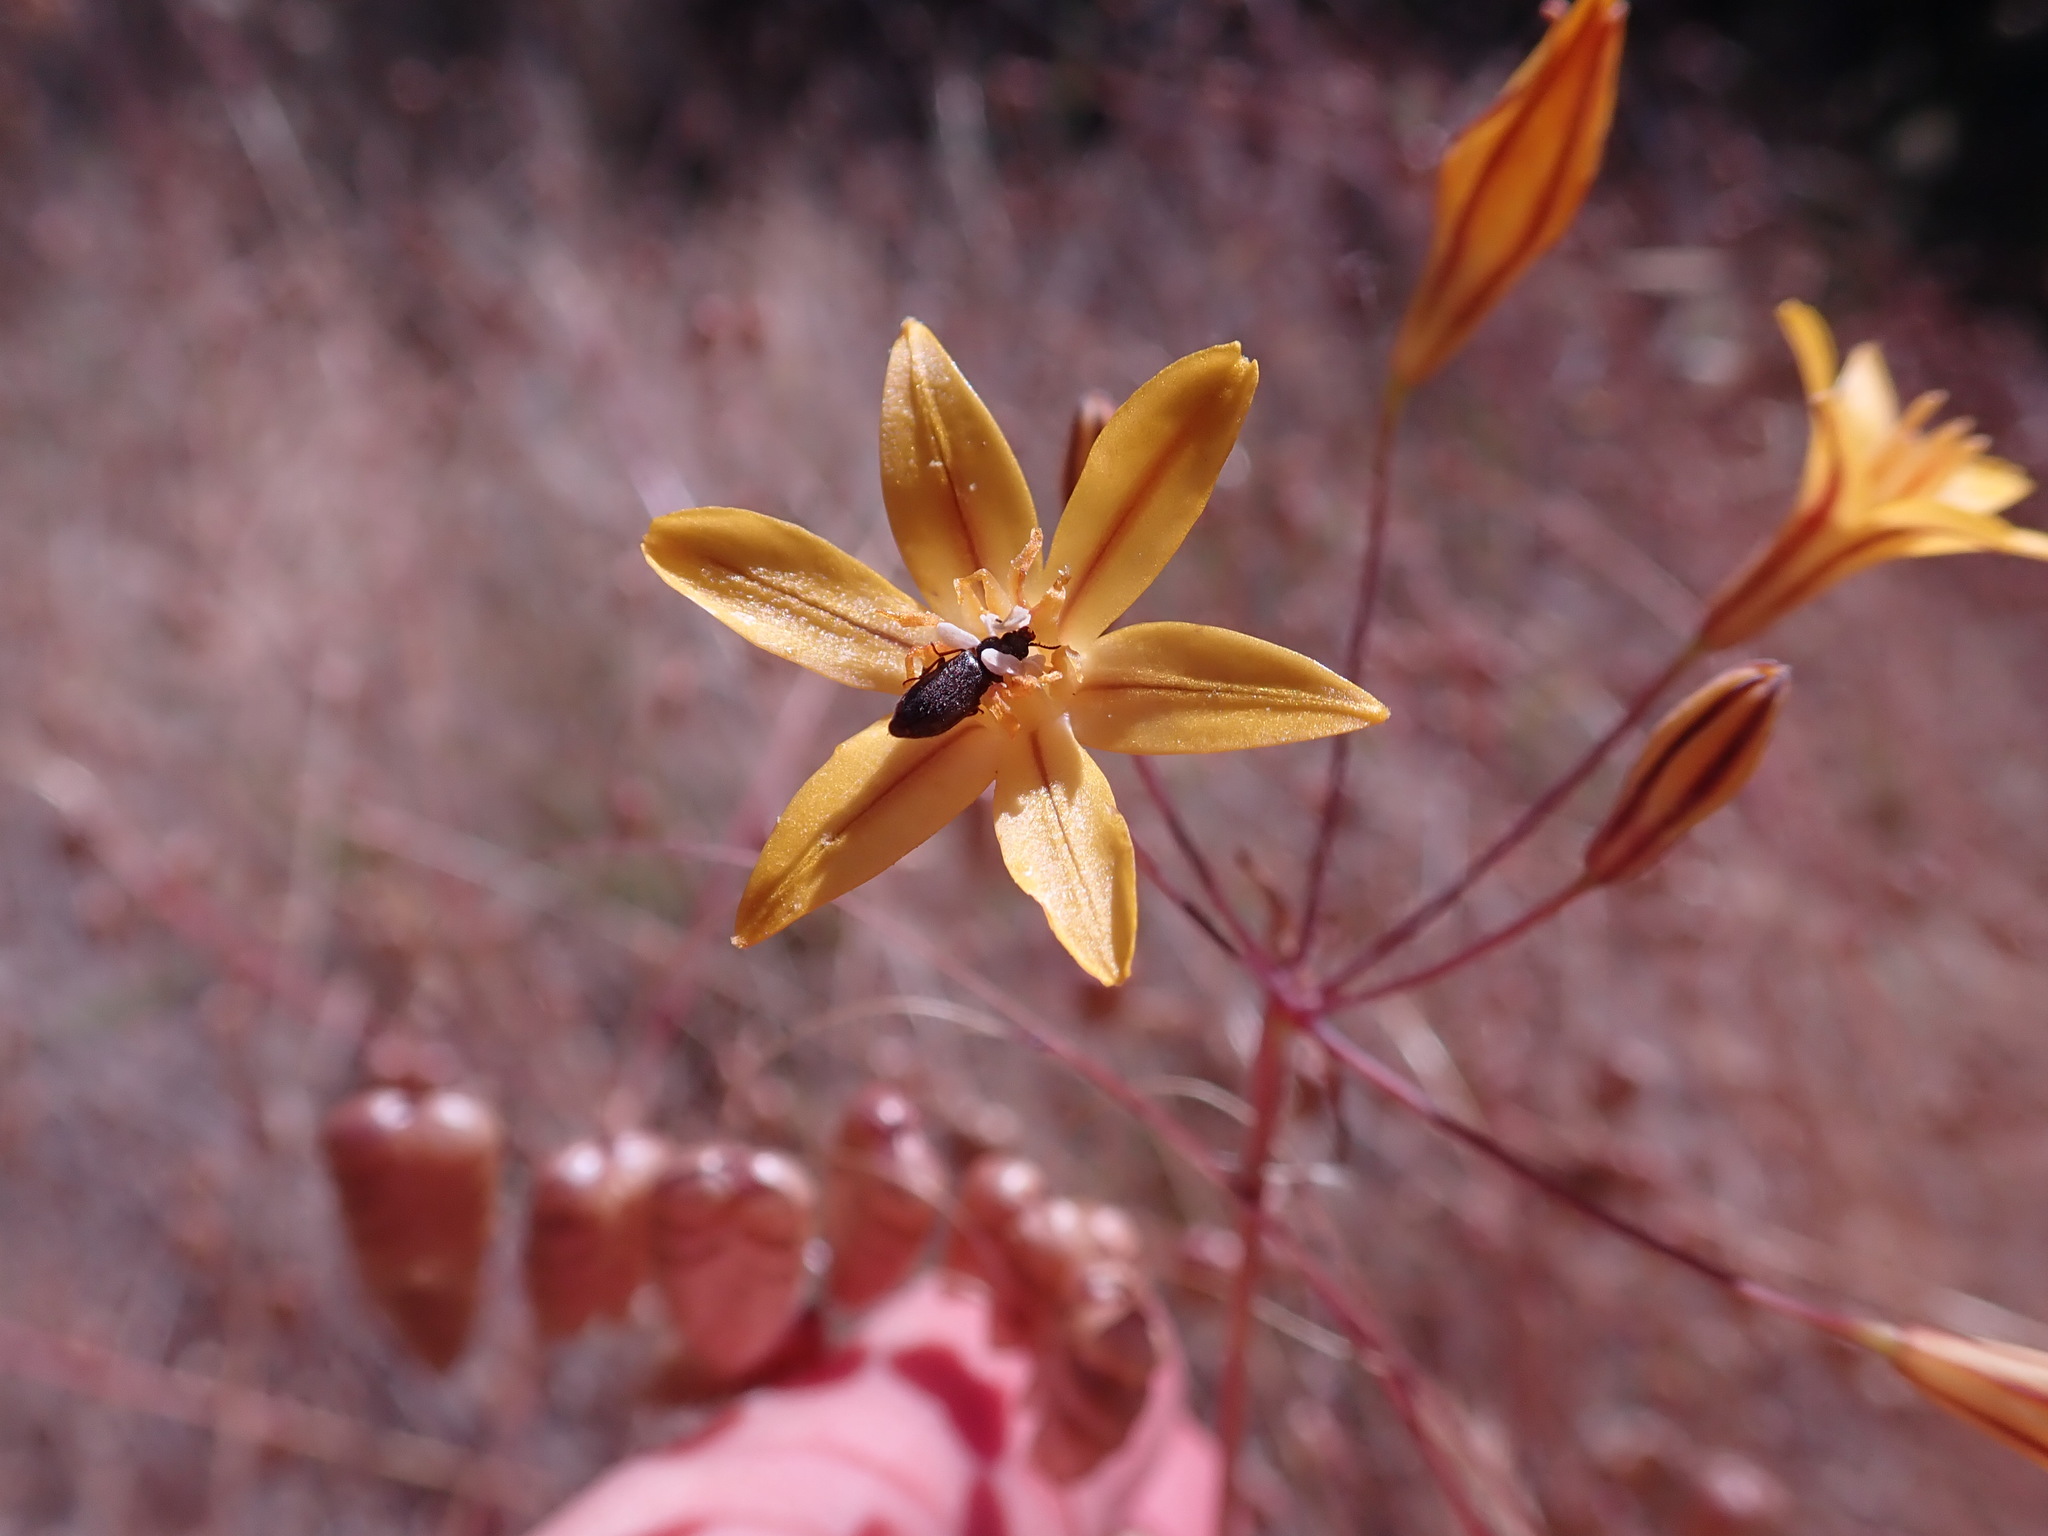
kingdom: Plantae
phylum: Tracheophyta
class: Liliopsida
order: Asparagales
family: Asparagaceae
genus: Triteleia
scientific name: Triteleia ixioides
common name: Yellow-brodiaea
